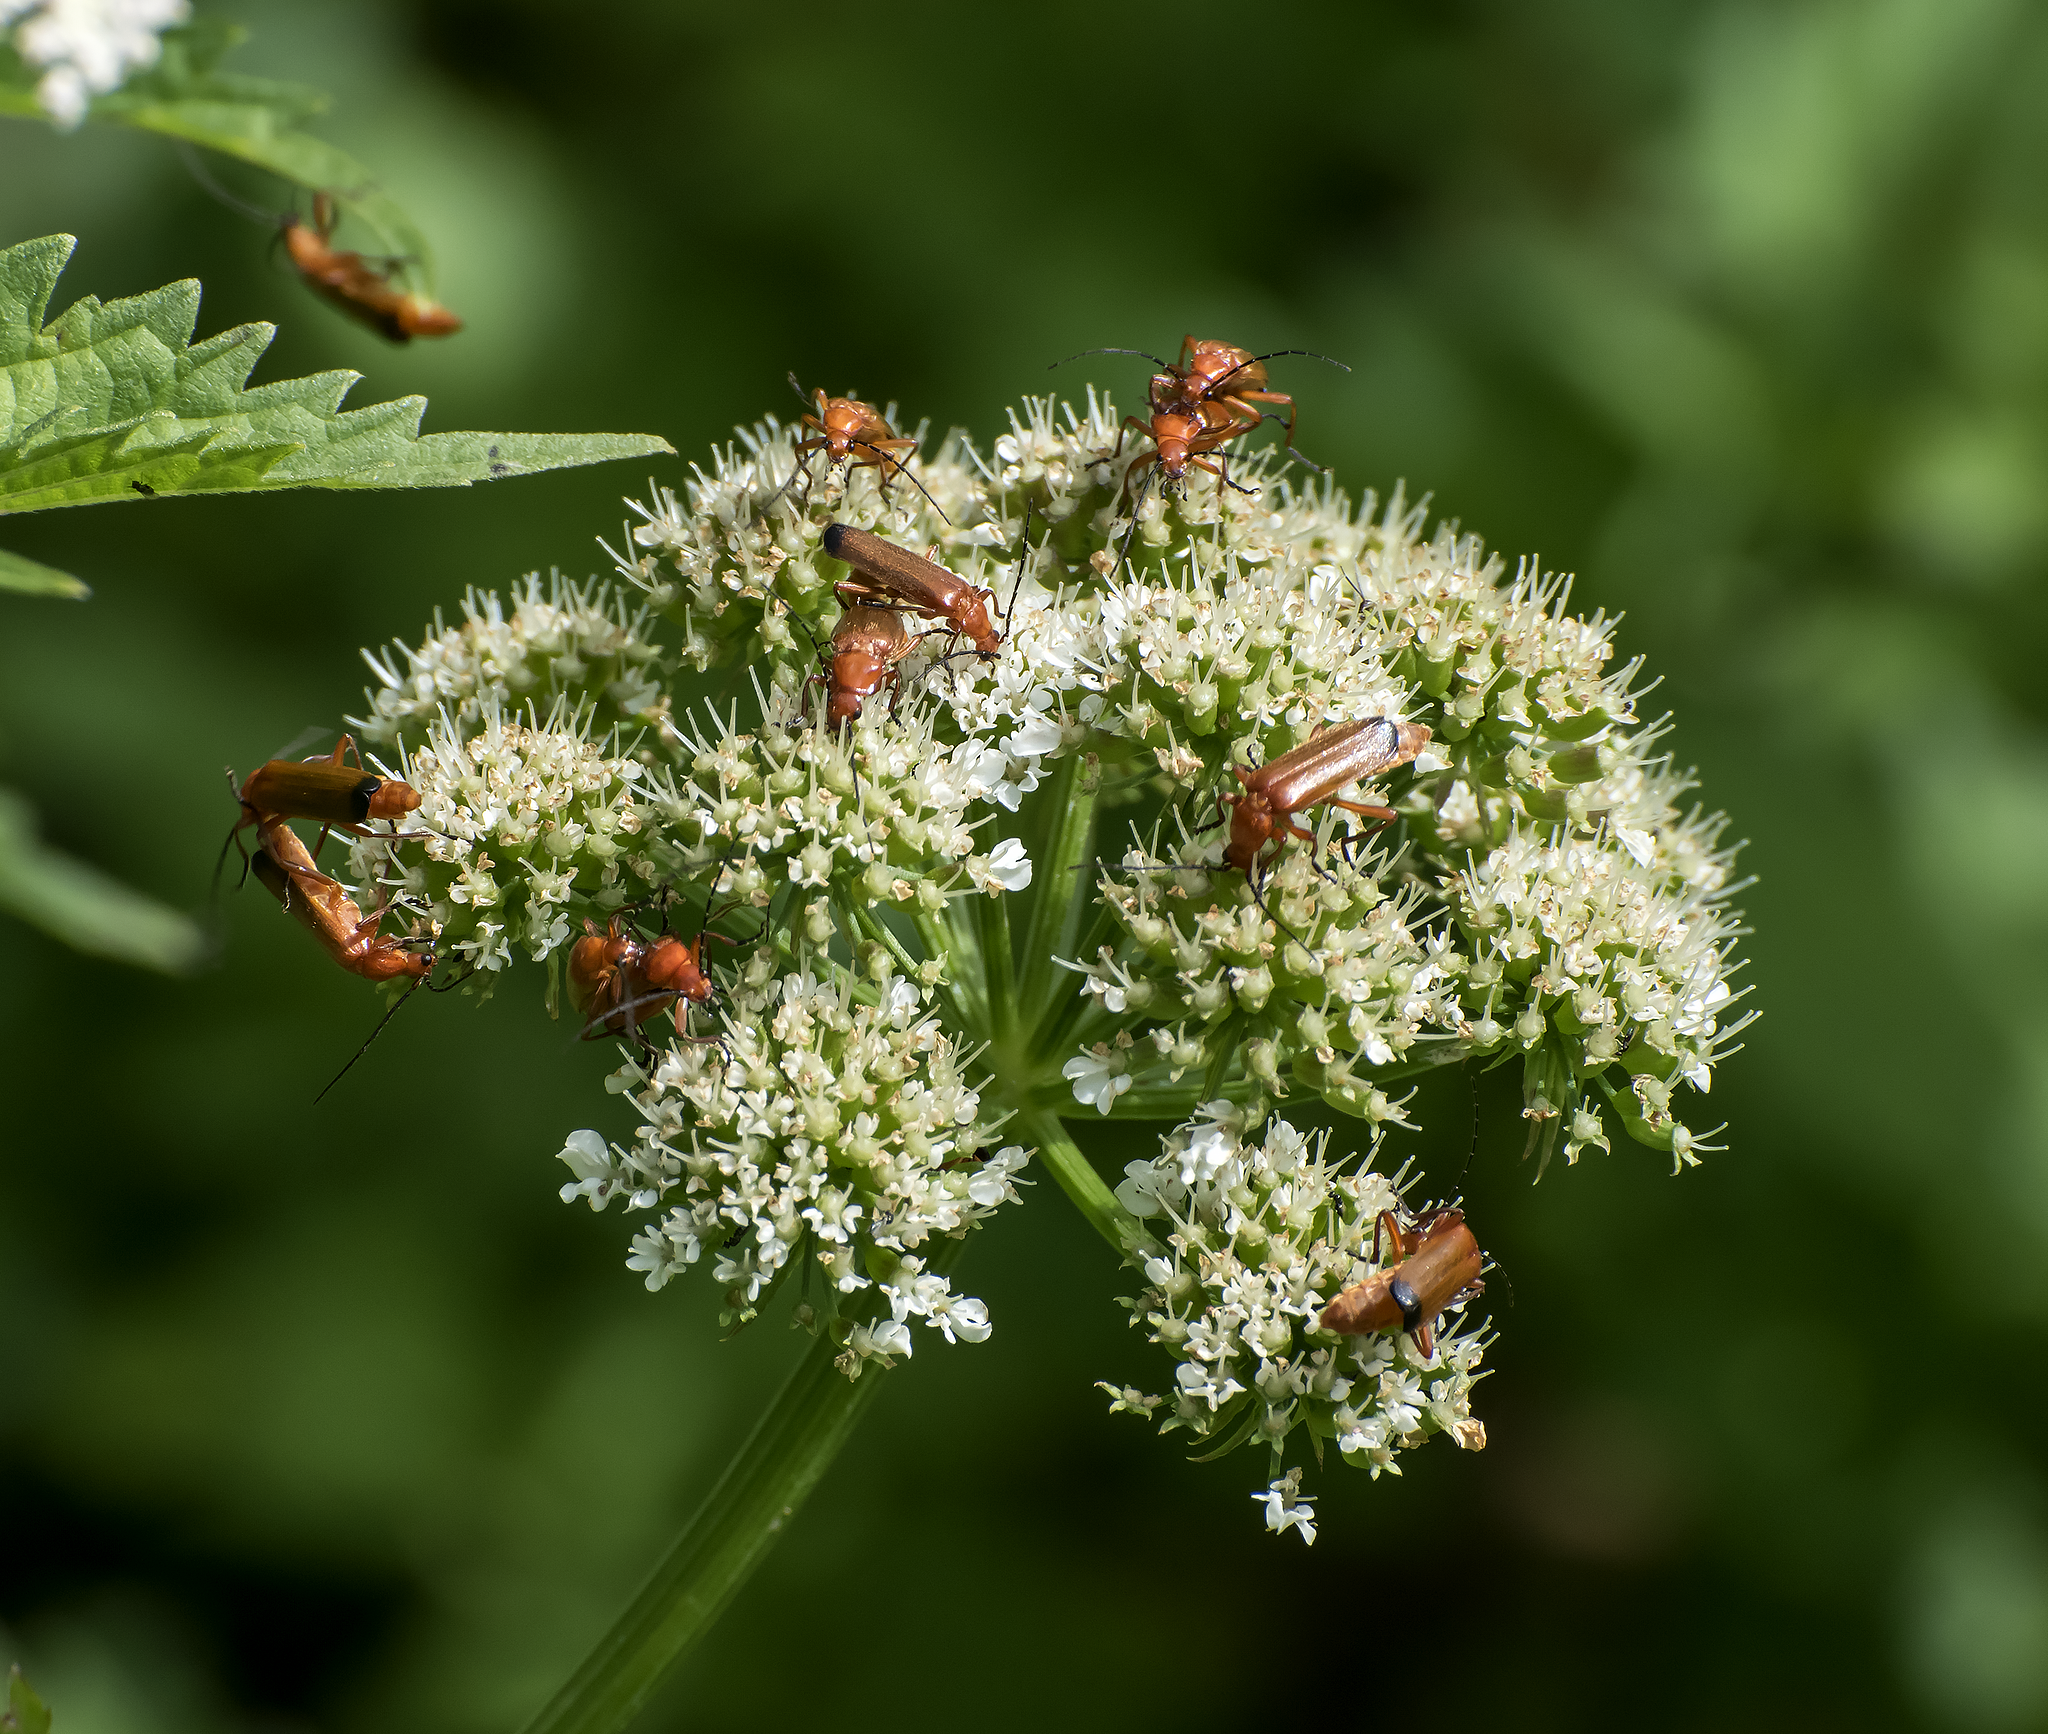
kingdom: Animalia
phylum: Arthropoda
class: Insecta
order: Coleoptera
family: Cantharidae
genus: Rhagonycha
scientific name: Rhagonycha fulva
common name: Common red soldier beetle
